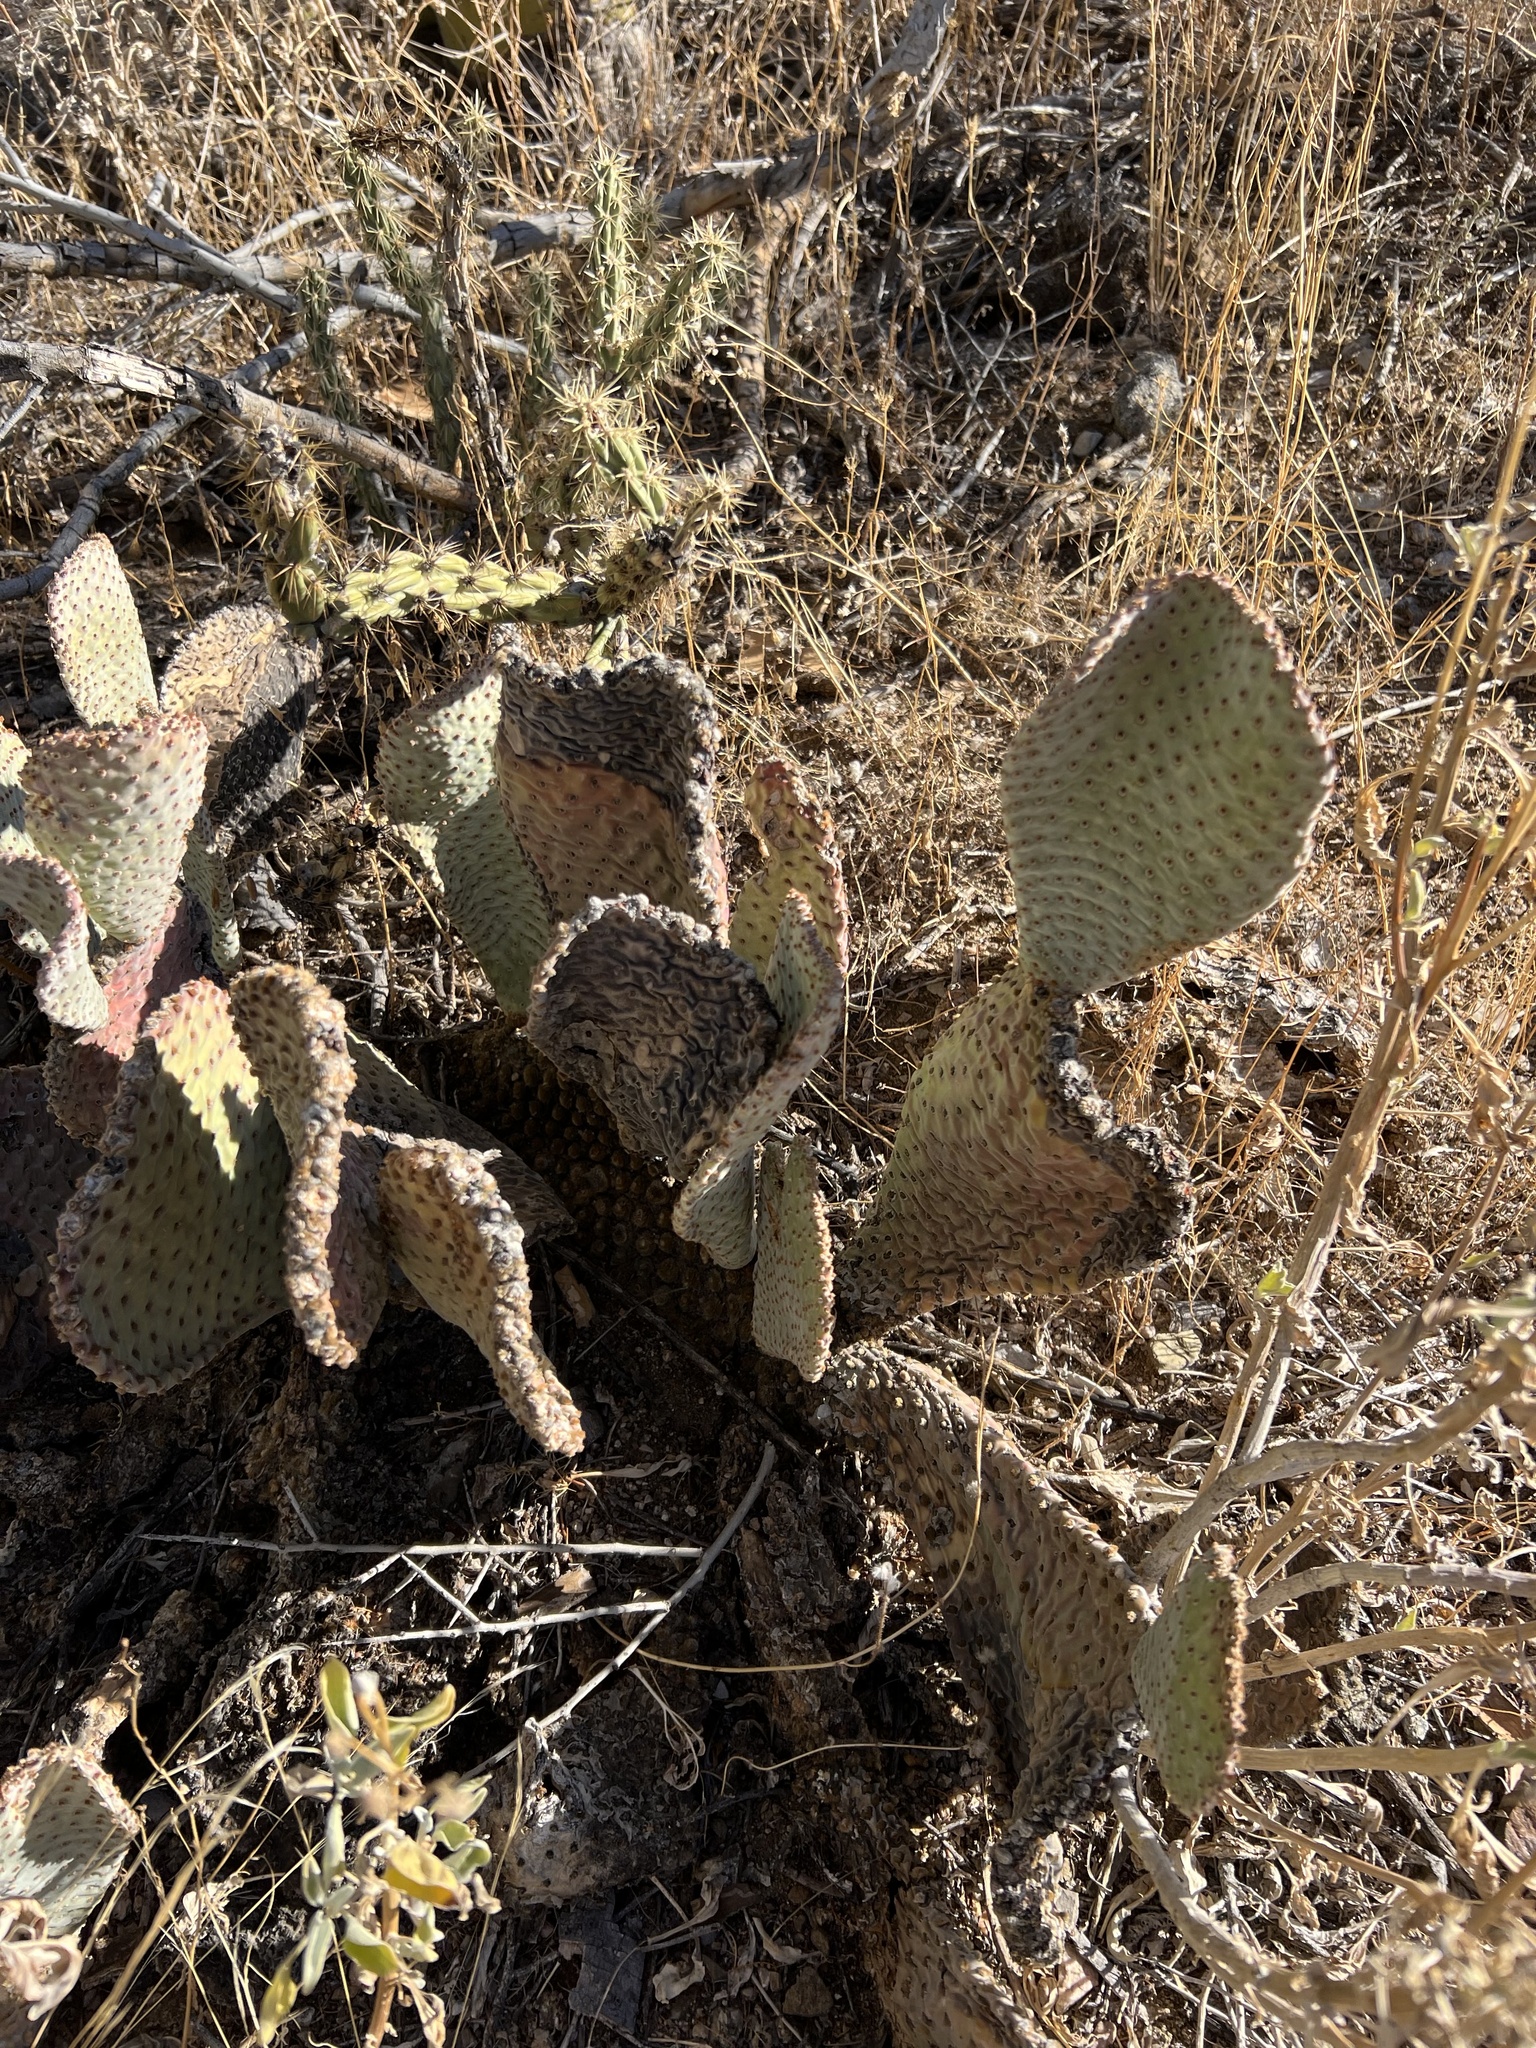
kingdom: Plantae
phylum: Tracheophyta
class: Magnoliopsida
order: Caryophyllales
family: Cactaceae
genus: Opuntia
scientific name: Opuntia basilaris
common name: Beavertail prickly-pear
